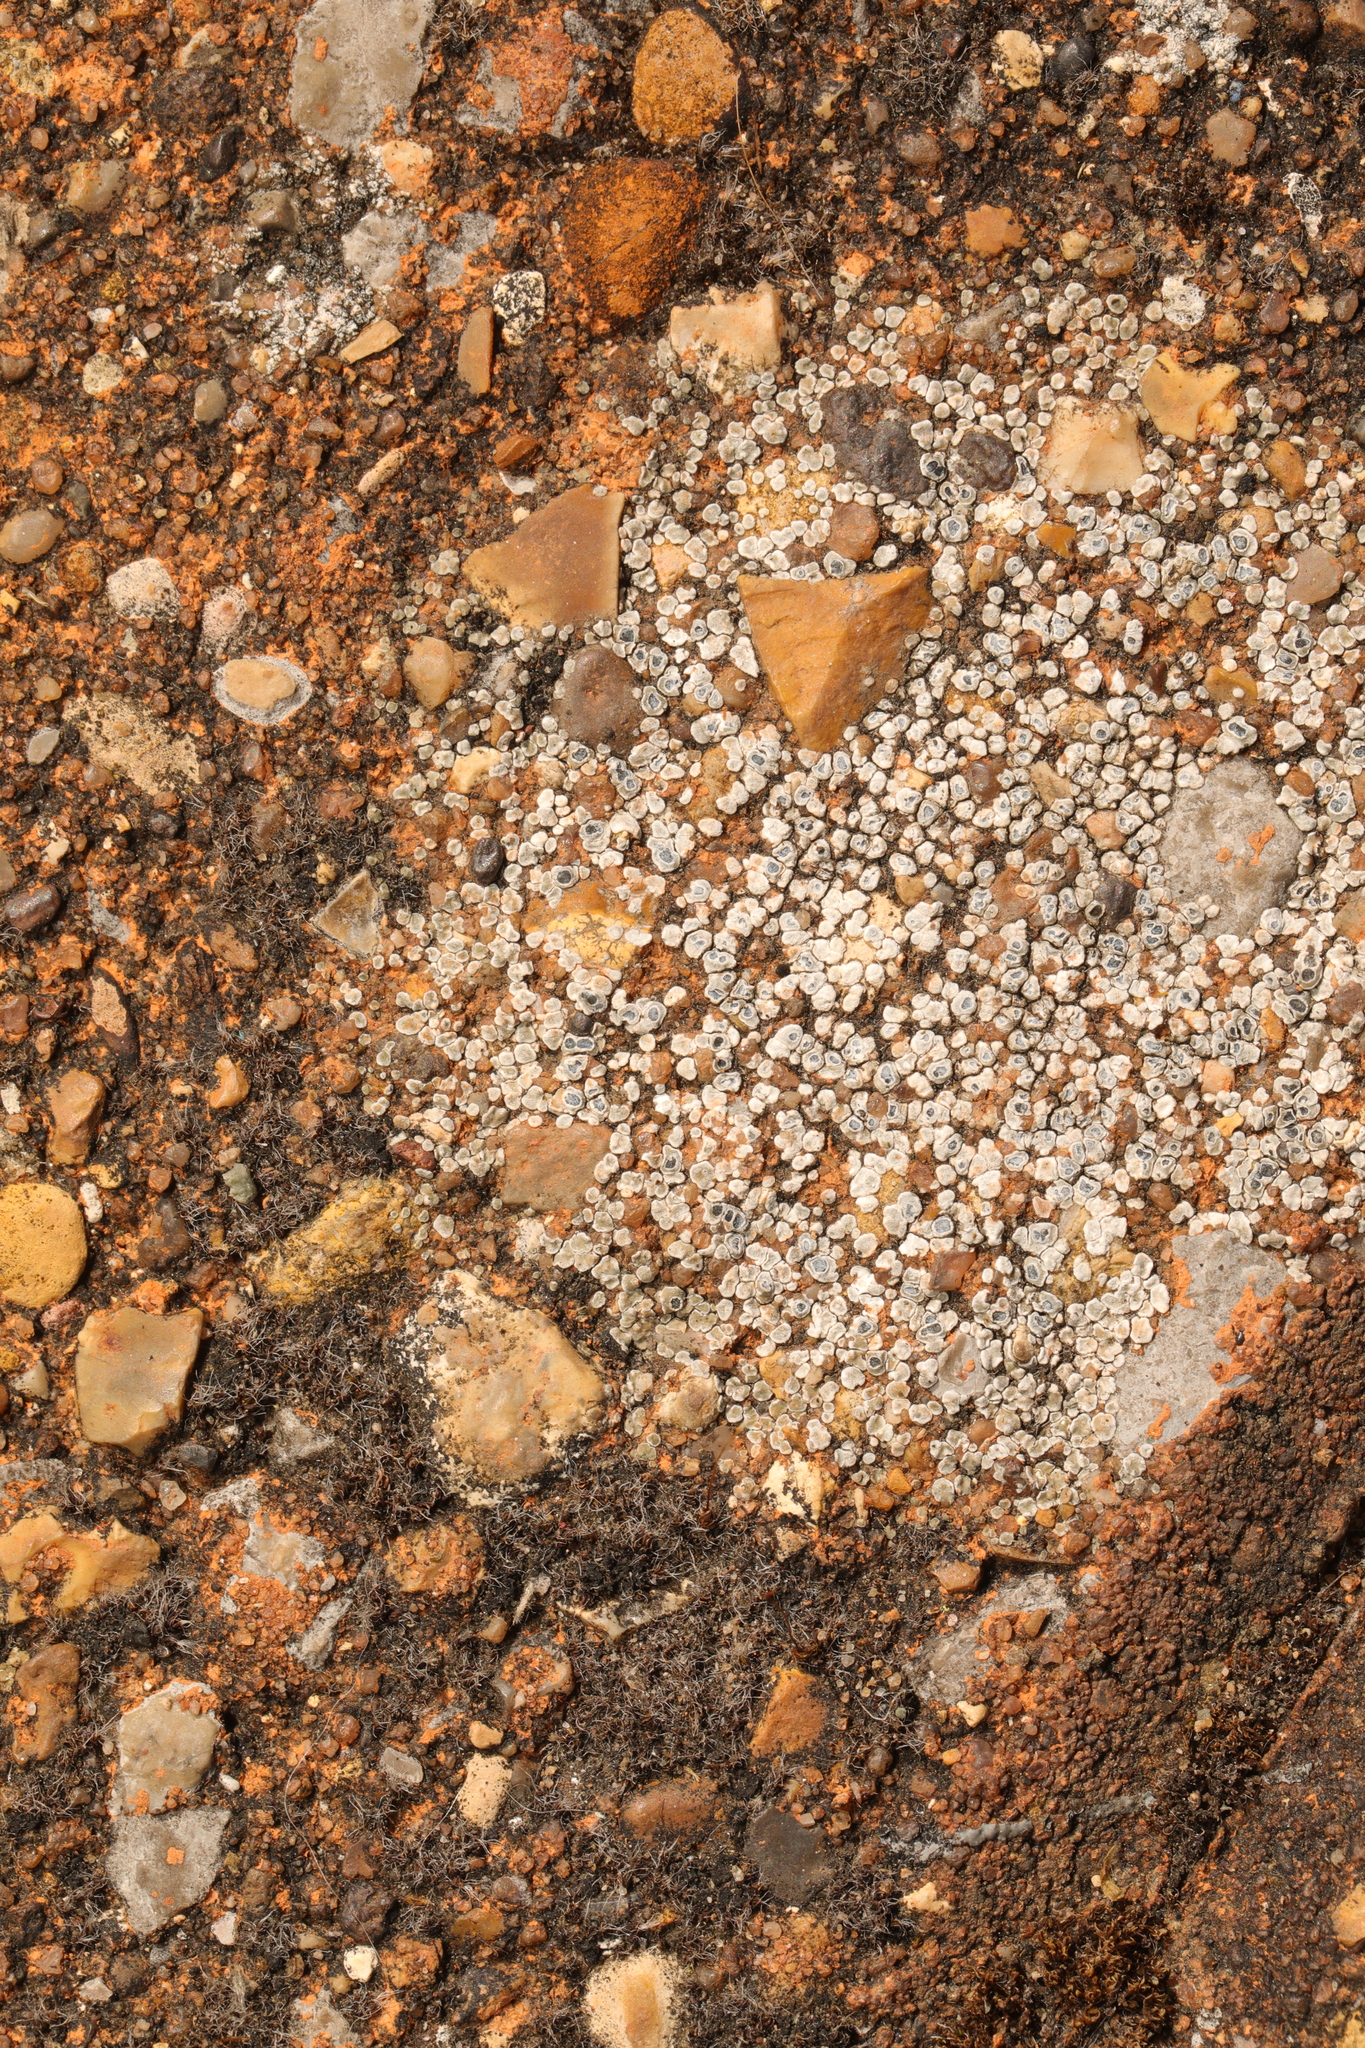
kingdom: Fungi
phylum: Ascomycota
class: Lecanoromycetes
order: Pertusariales
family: Megasporaceae
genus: Circinaria
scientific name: Circinaria contorta
